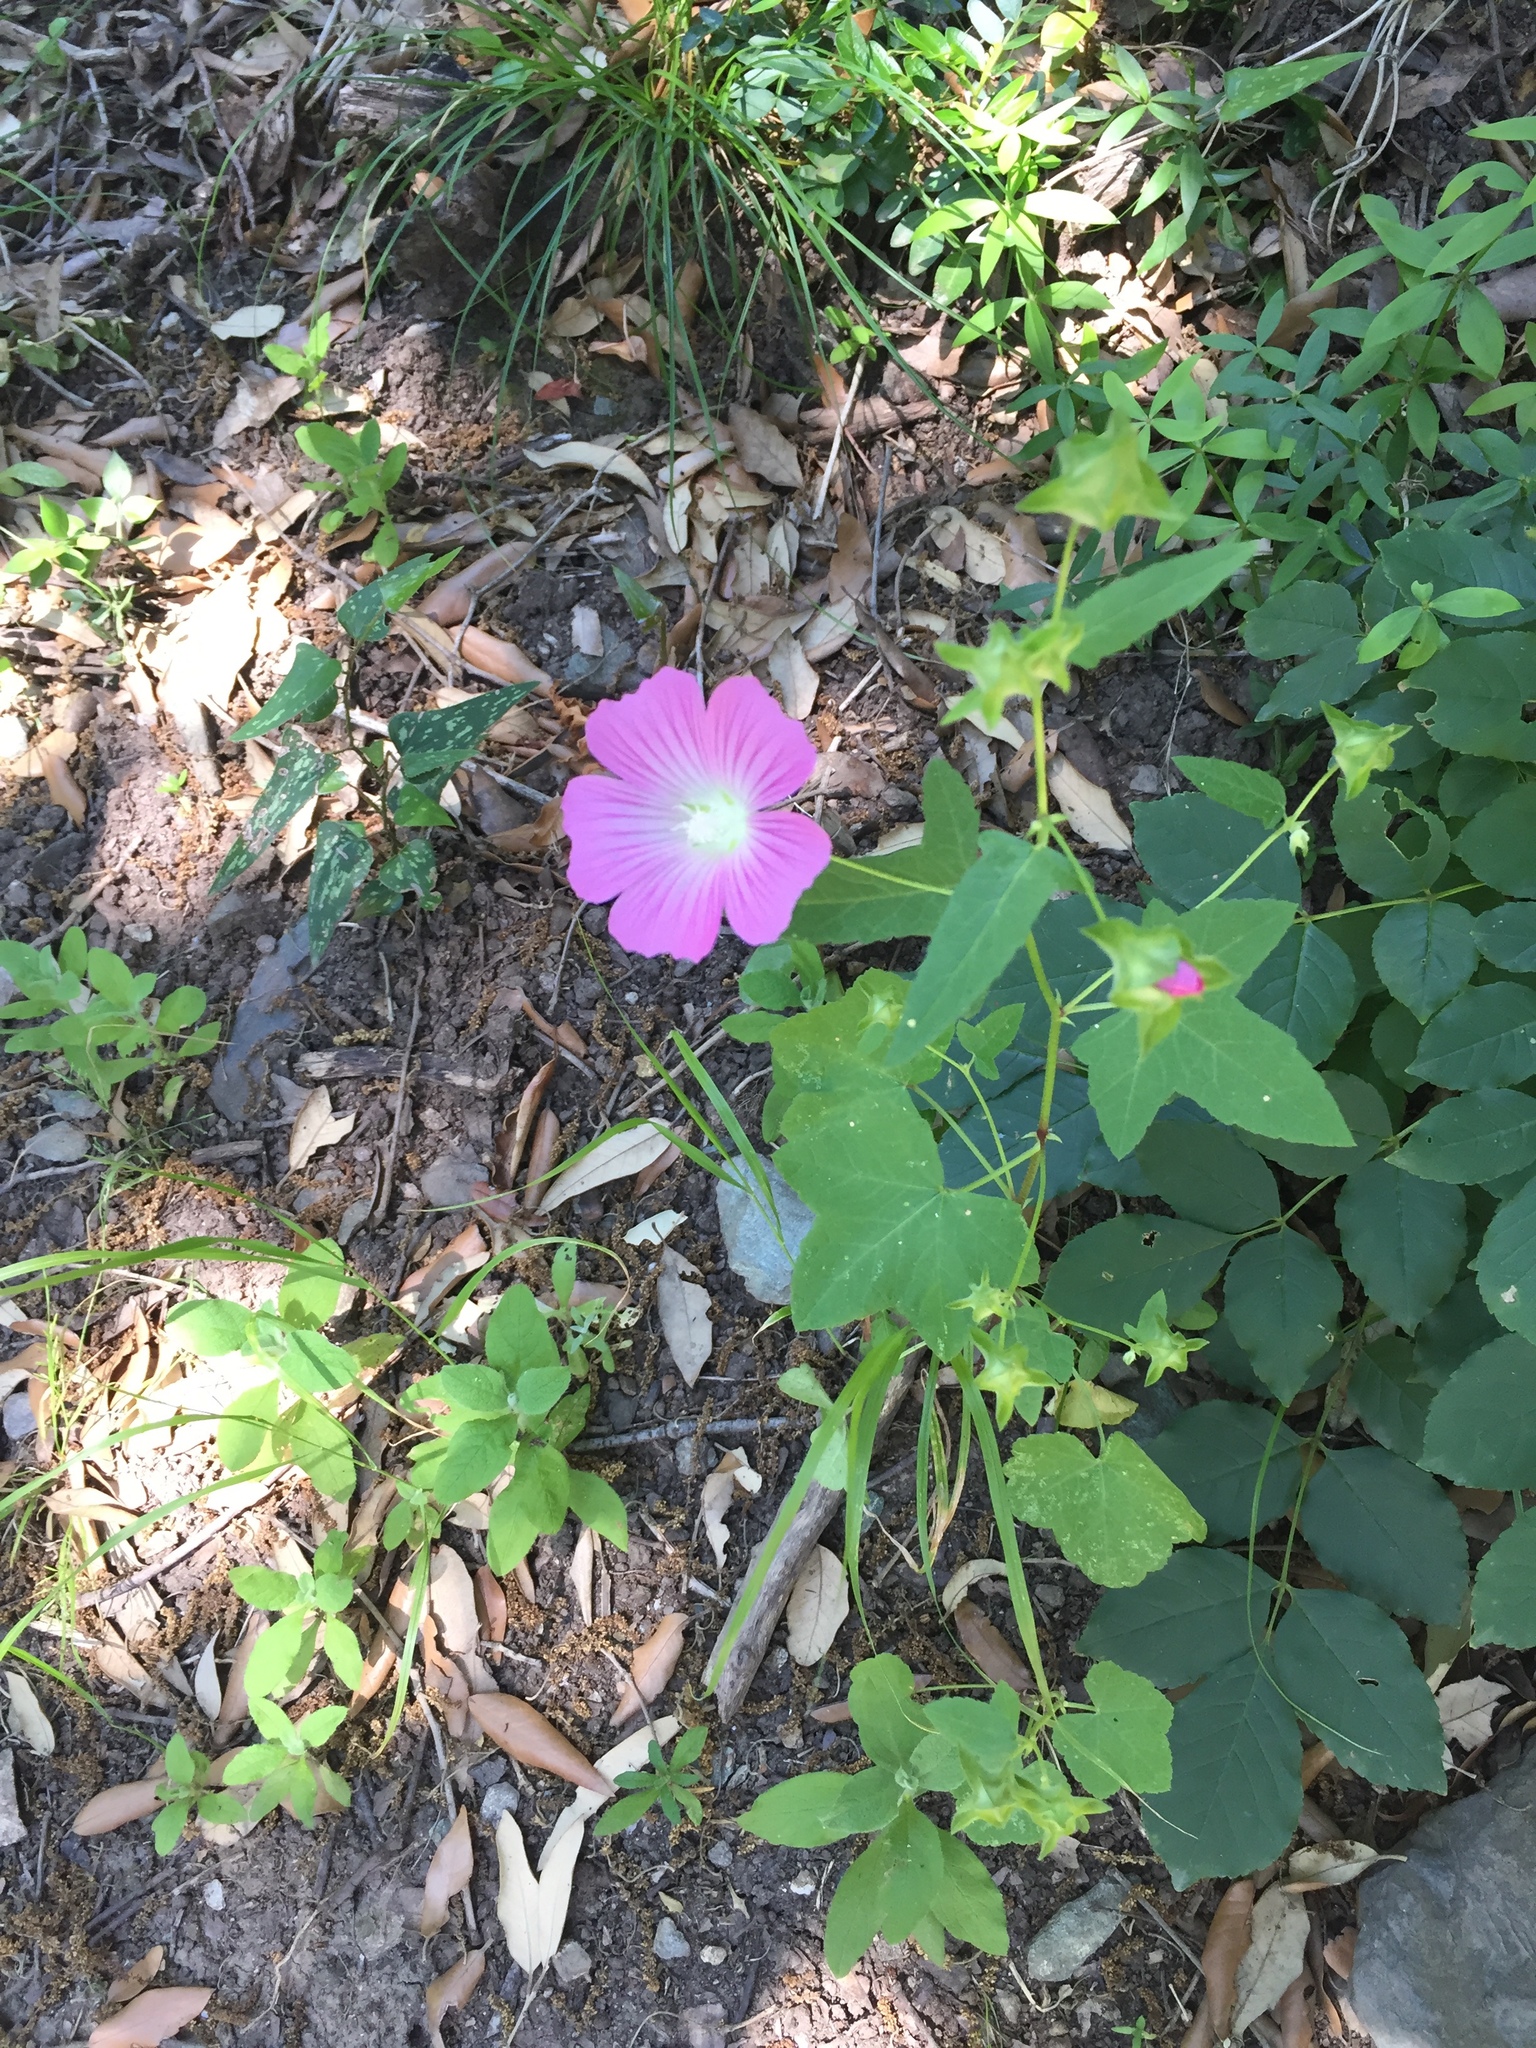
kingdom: Plantae
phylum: Tracheophyta
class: Magnoliopsida
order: Malvales
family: Malvaceae
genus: Malva
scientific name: Malva punctata
